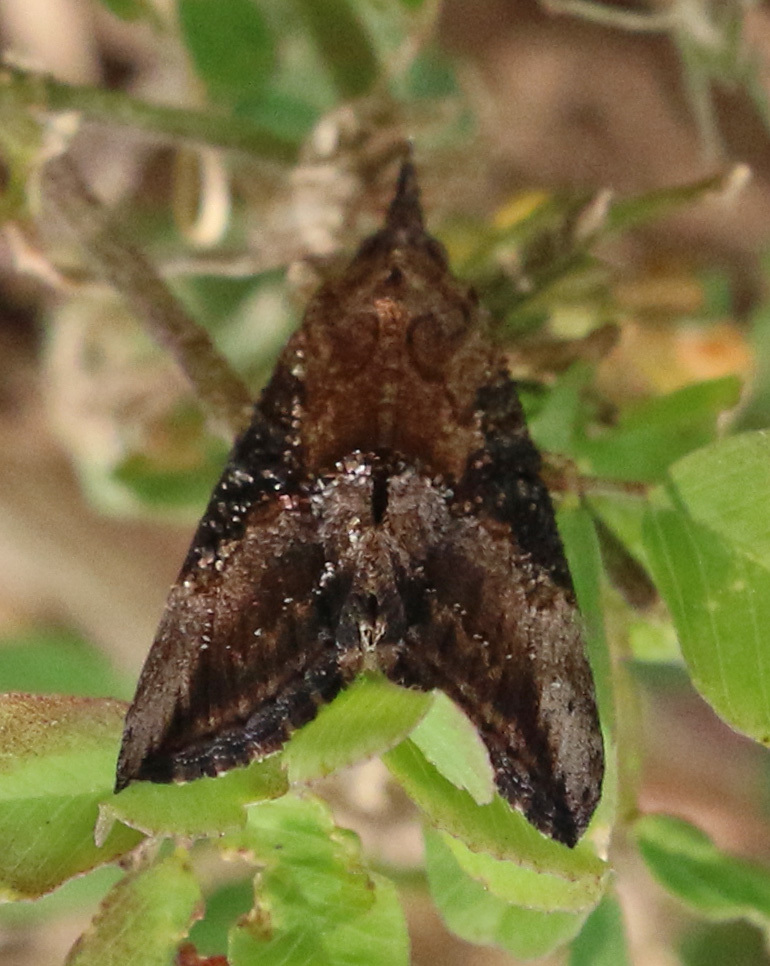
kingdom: Animalia
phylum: Arthropoda
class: Insecta
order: Lepidoptera
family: Erebidae
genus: Hypena
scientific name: Hypena scabra
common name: Green cloverworm
